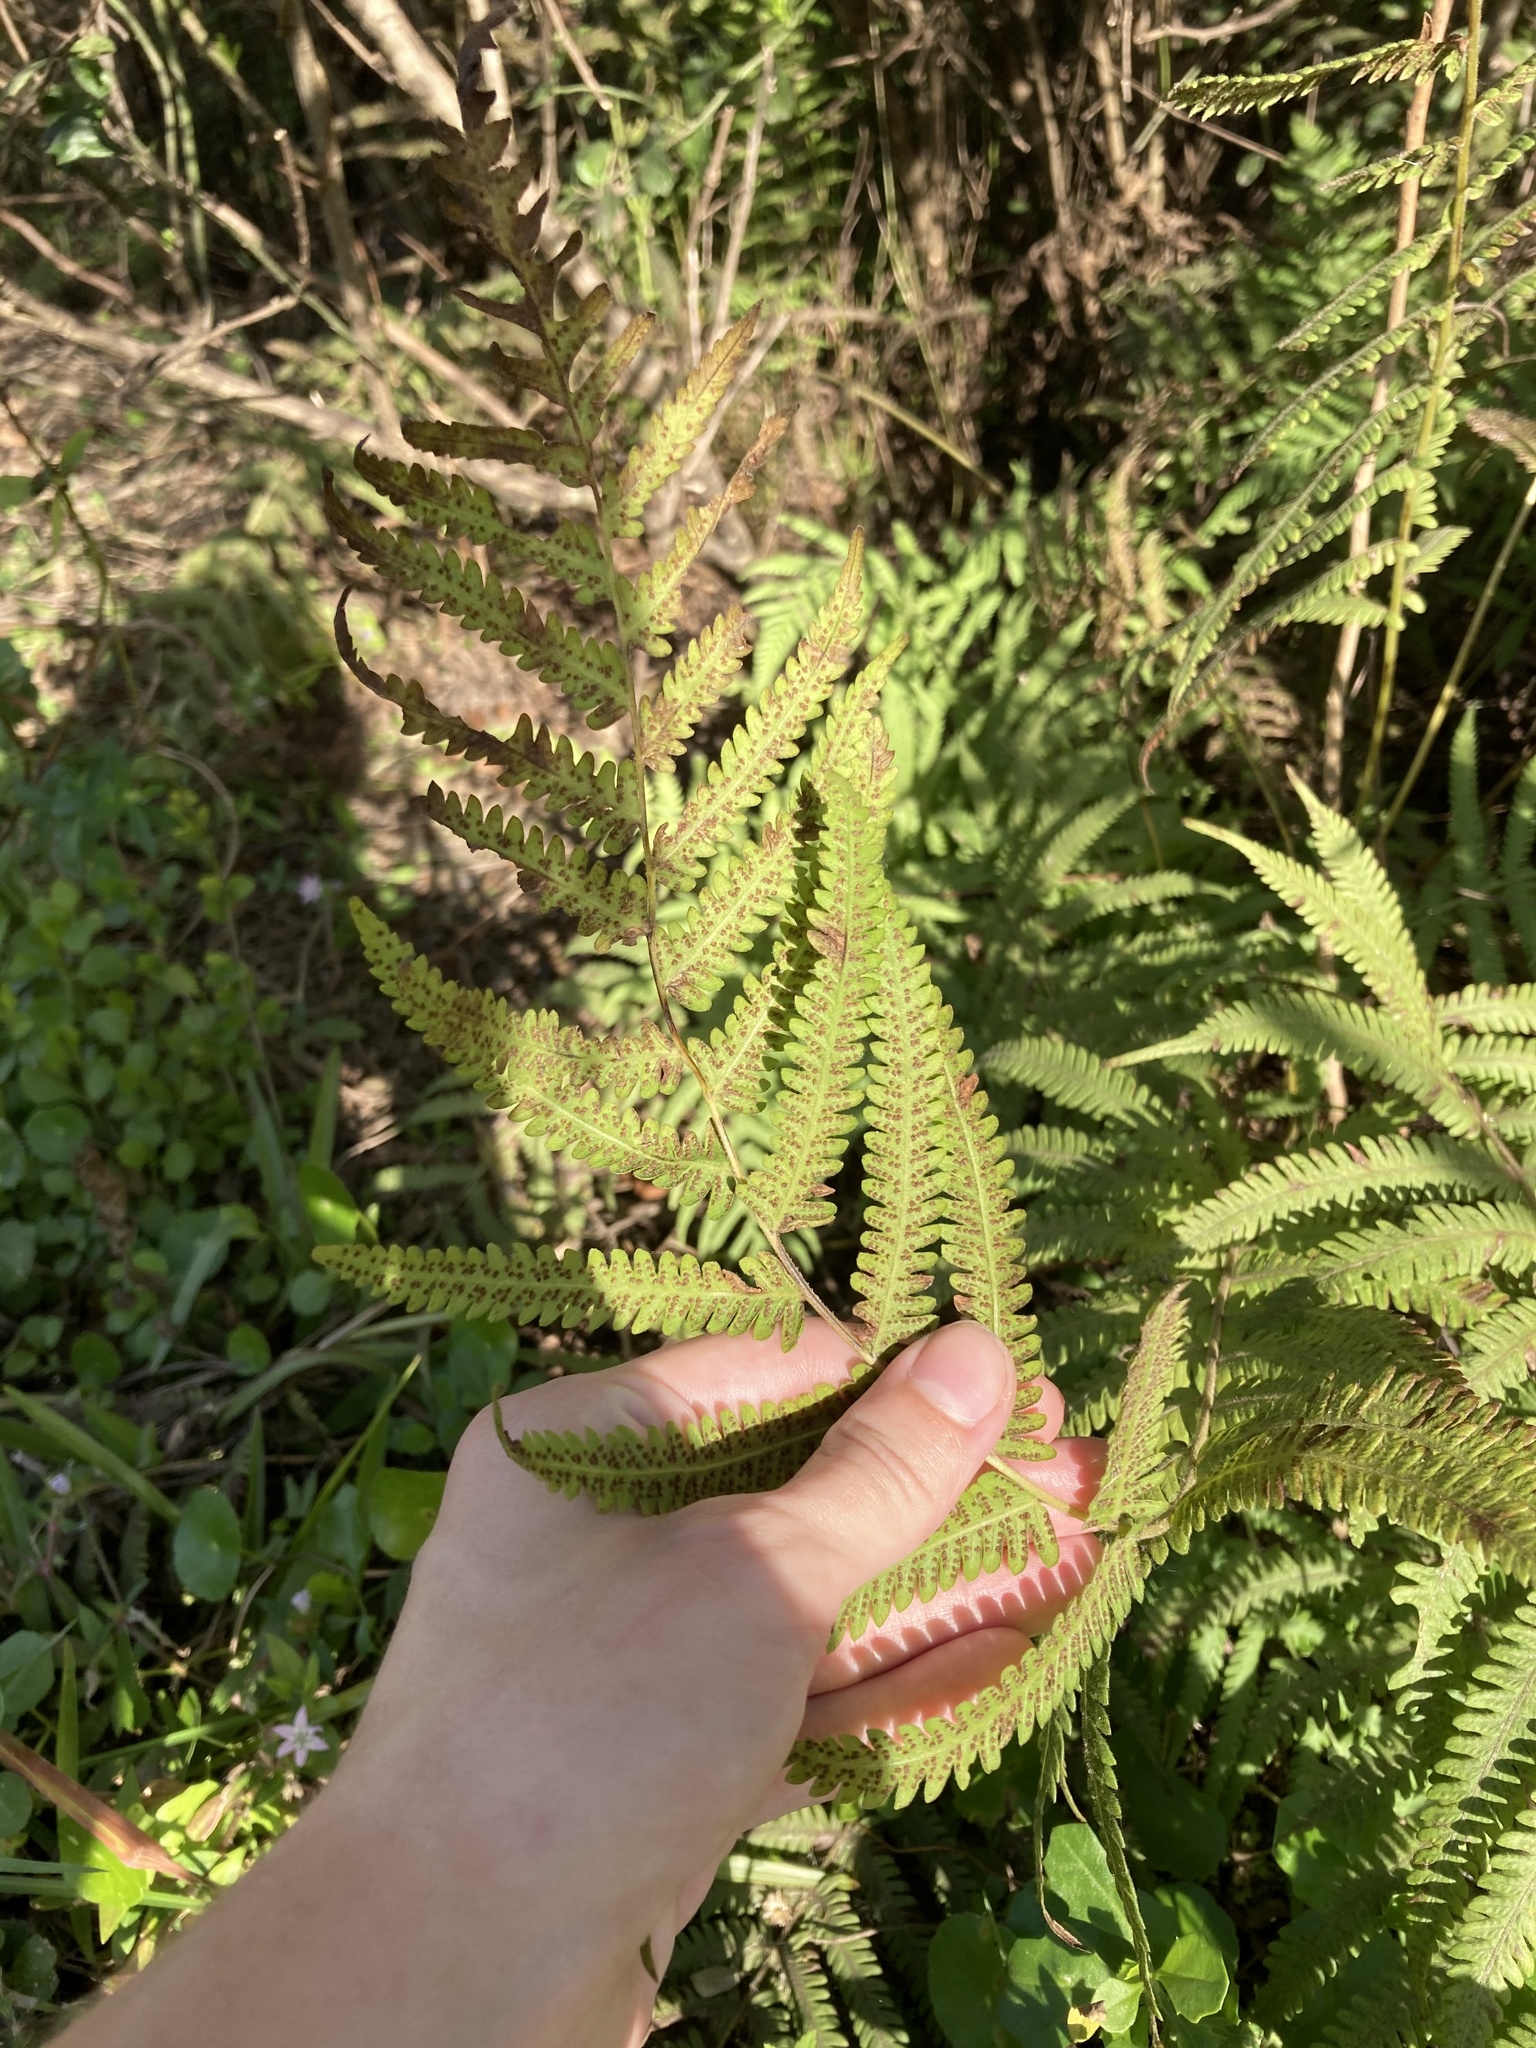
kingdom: Plantae
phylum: Tracheophyta
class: Polypodiopsida
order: Polypodiales
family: Thelypteridaceae
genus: Pelazoneuron
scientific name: Pelazoneuron kunthii
